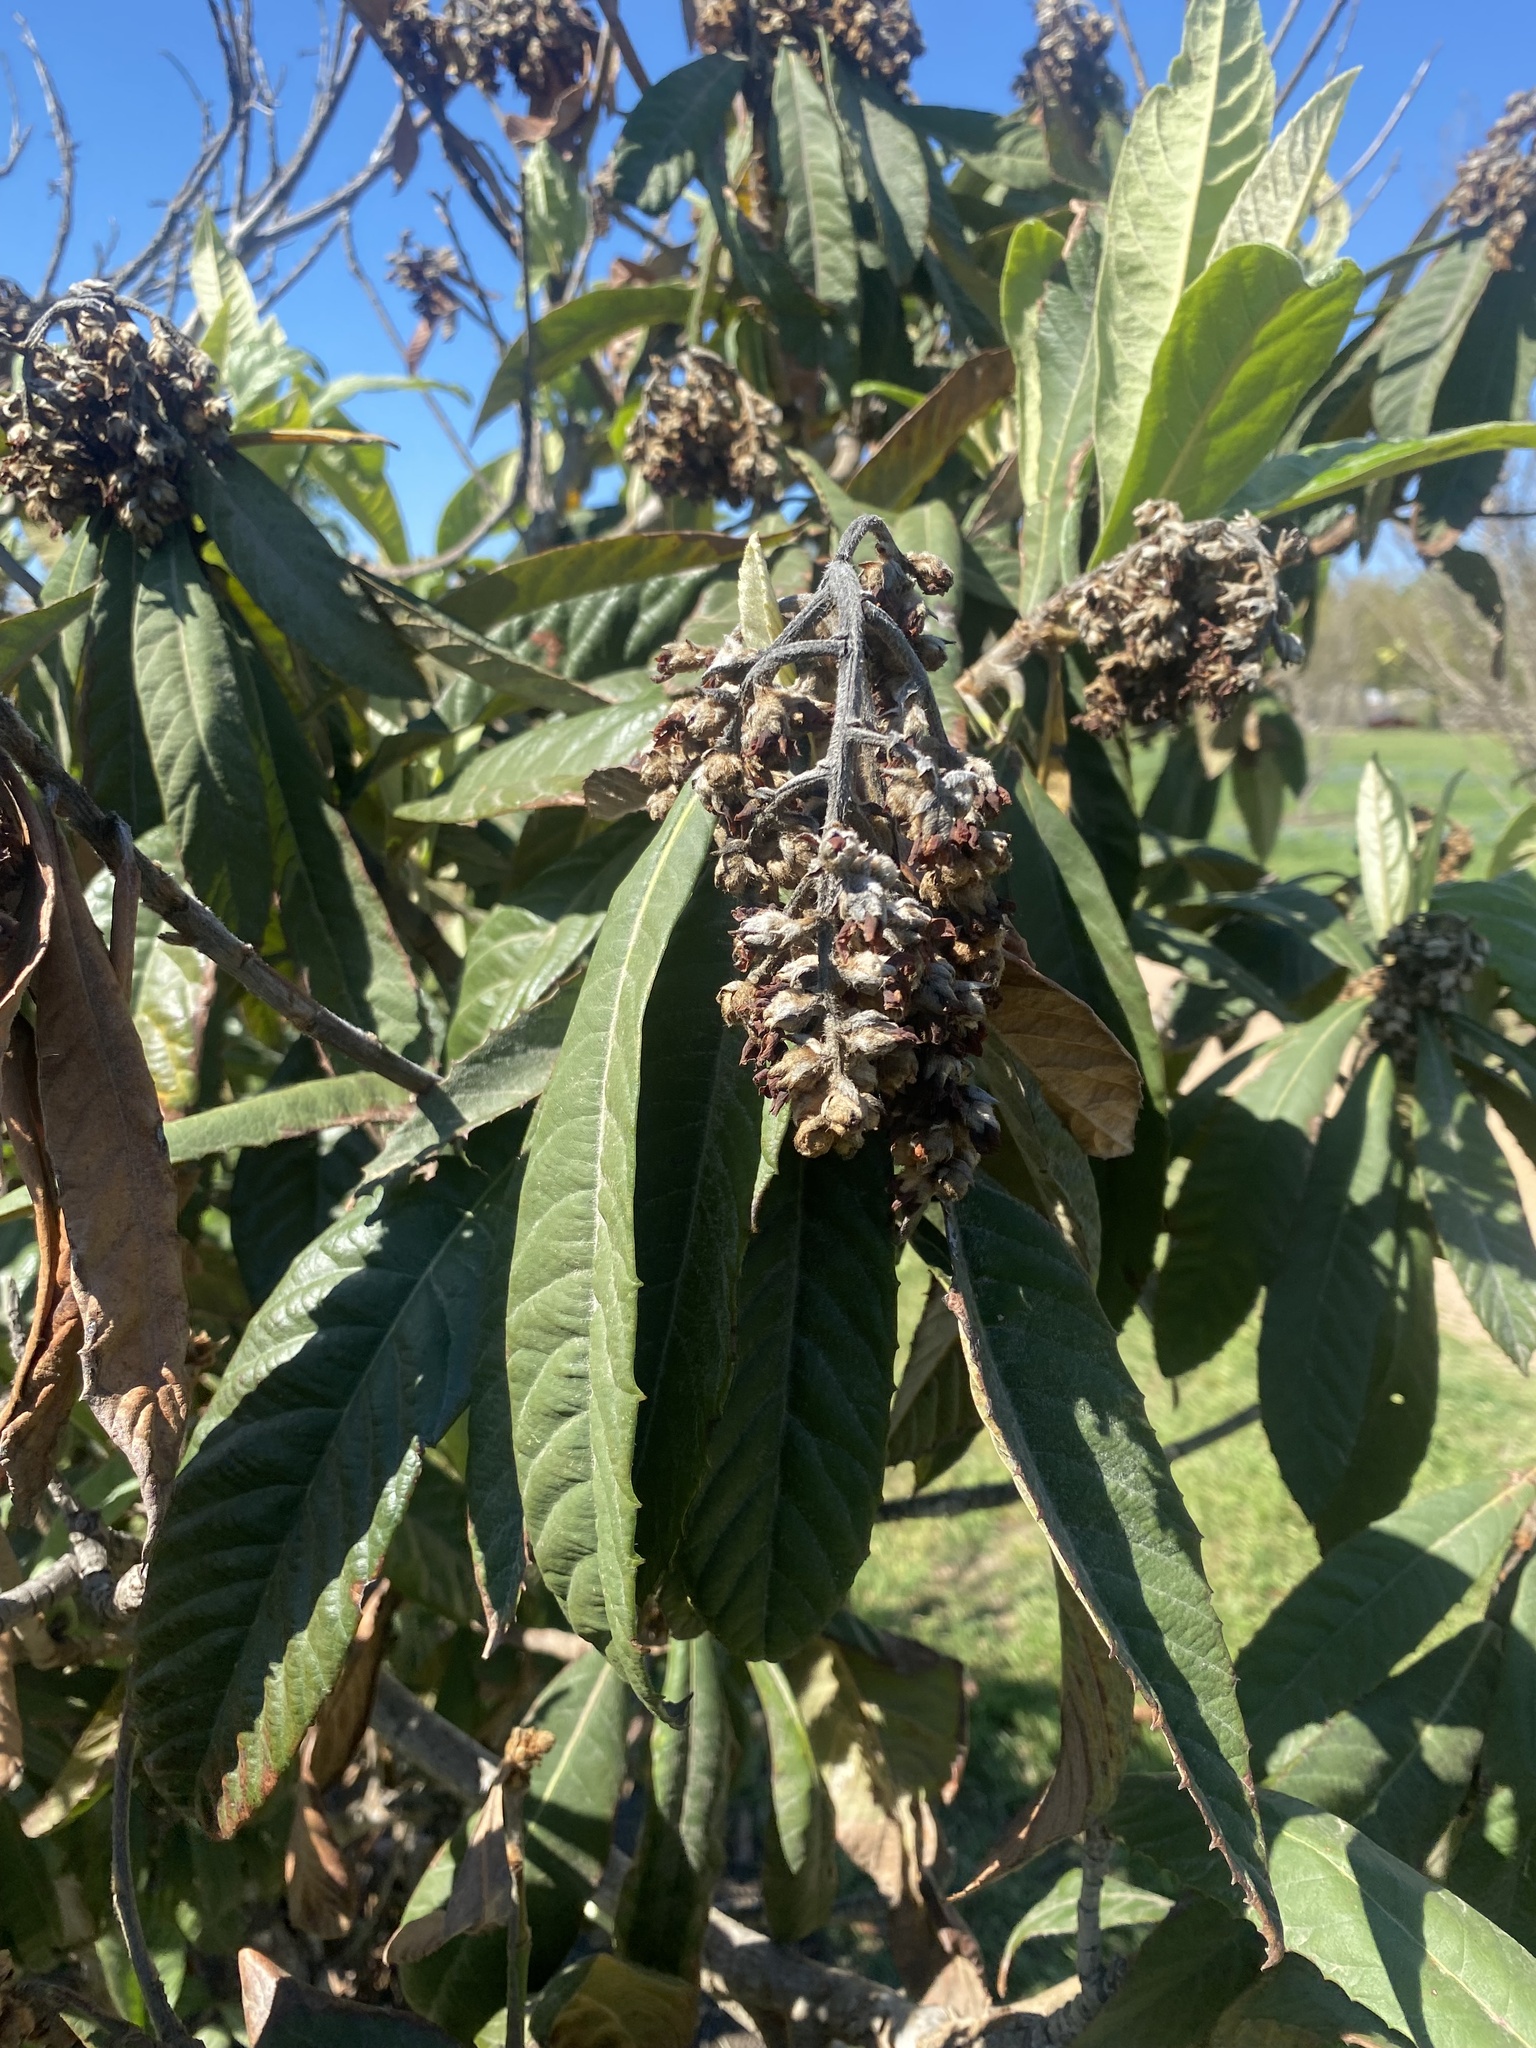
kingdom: Plantae
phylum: Tracheophyta
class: Magnoliopsida
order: Rosales
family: Rosaceae
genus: Rhaphiolepis
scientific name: Rhaphiolepis bibas
